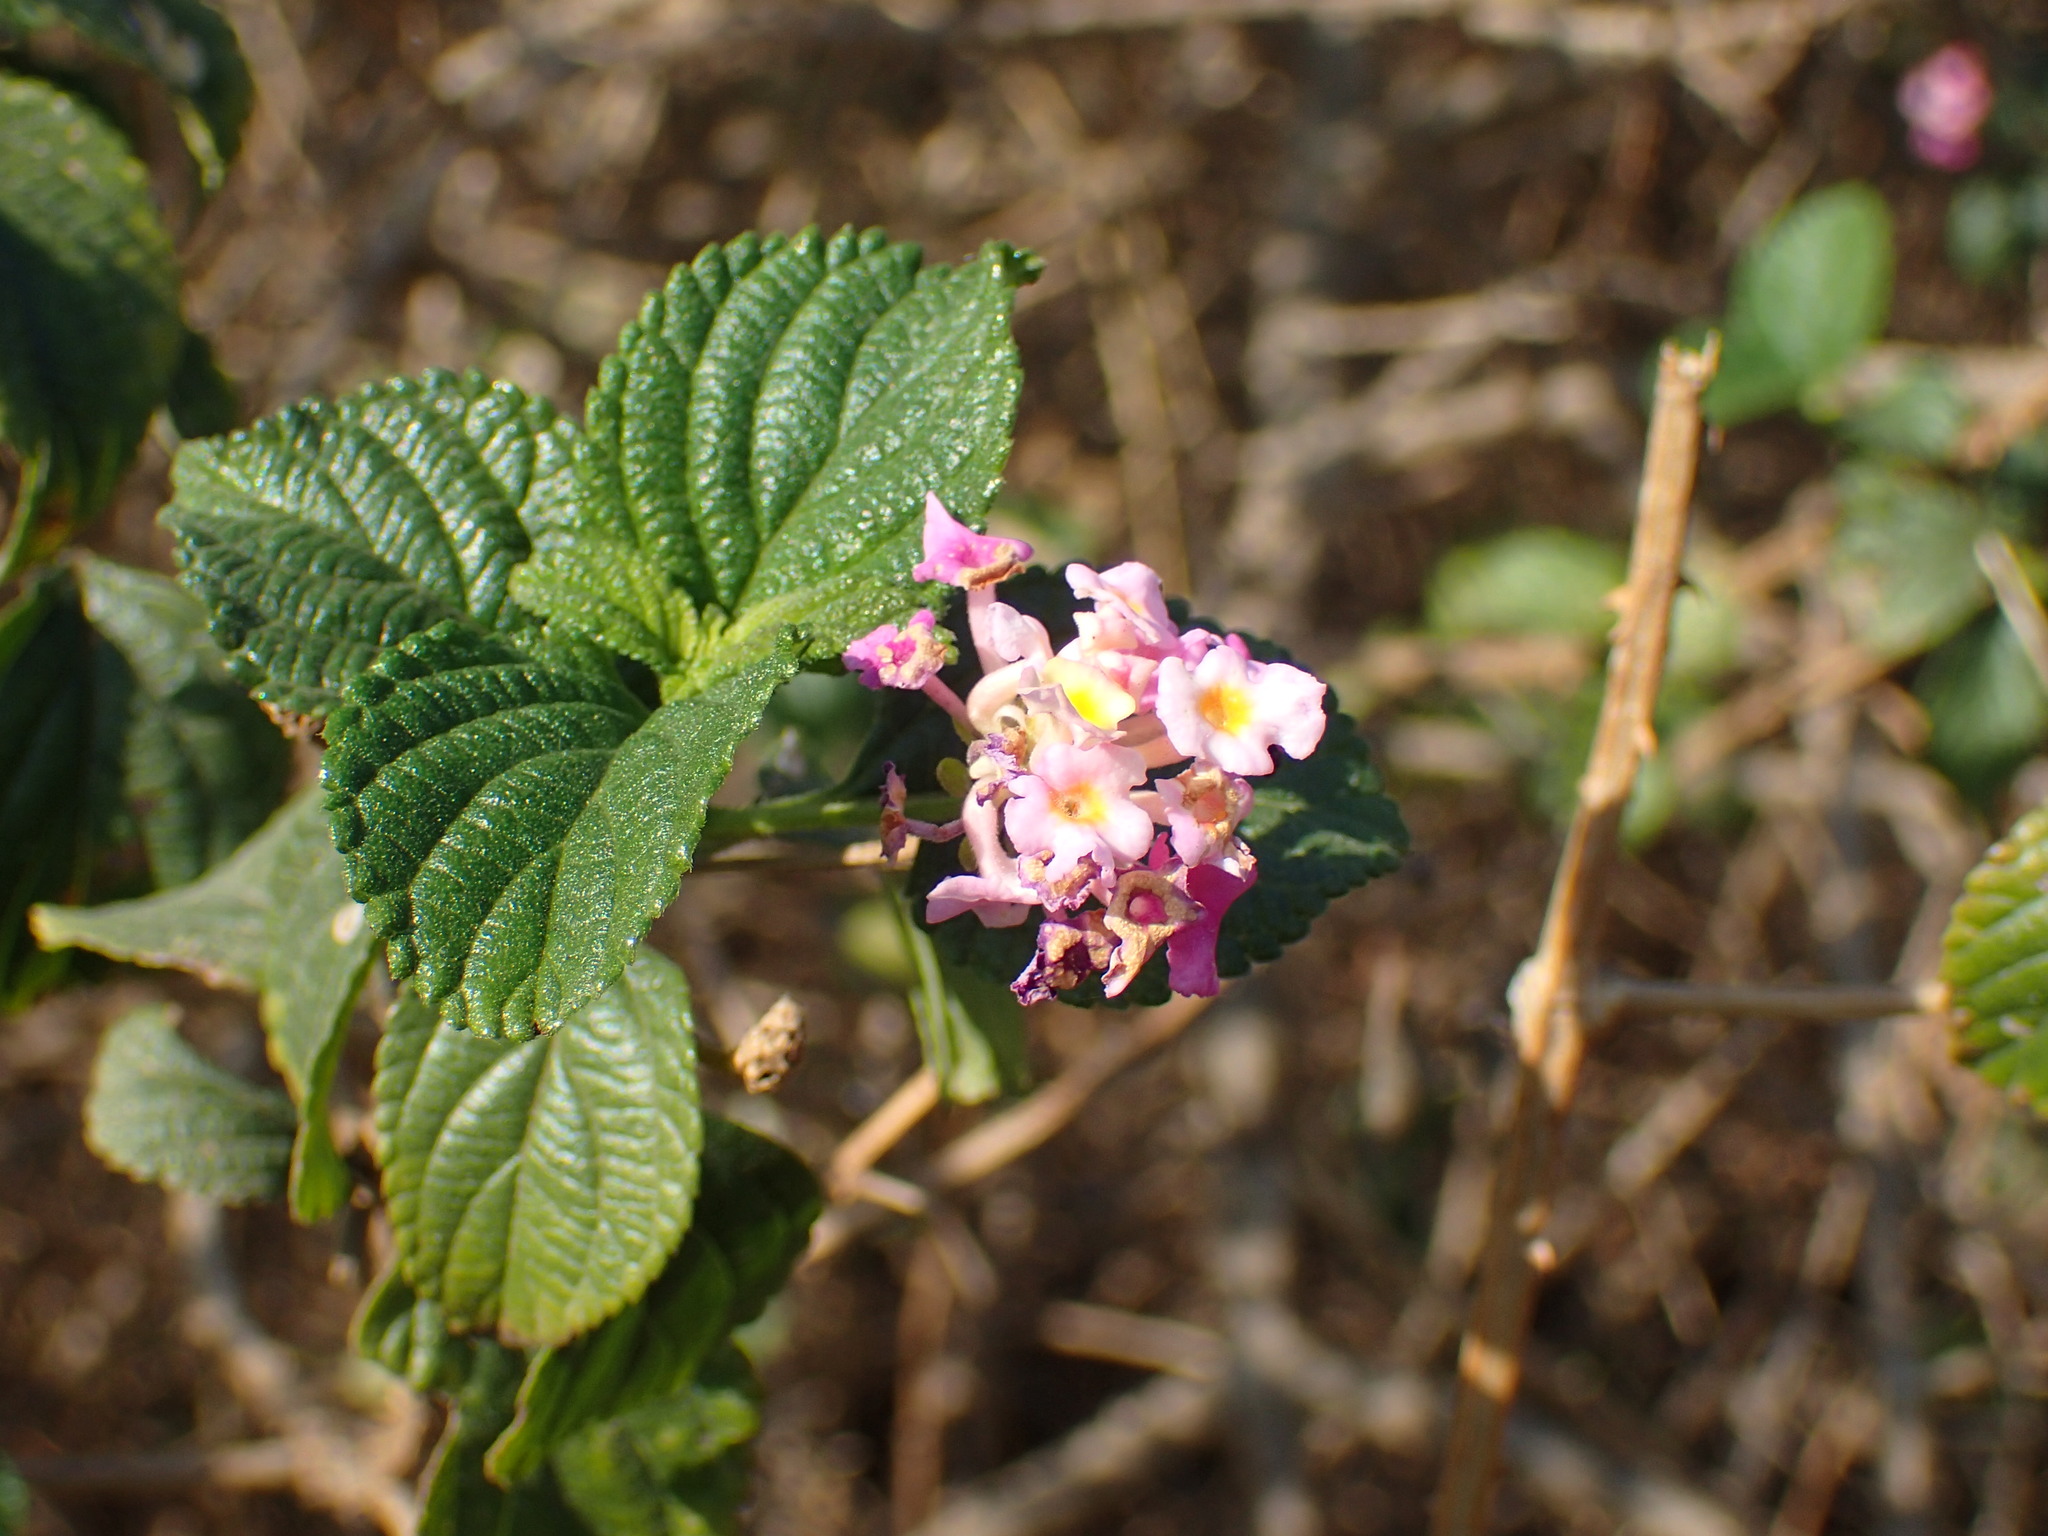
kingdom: Plantae
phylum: Tracheophyta
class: Magnoliopsida
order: Lamiales
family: Verbenaceae
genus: Lantana
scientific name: Lantana camara
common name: Lantana
